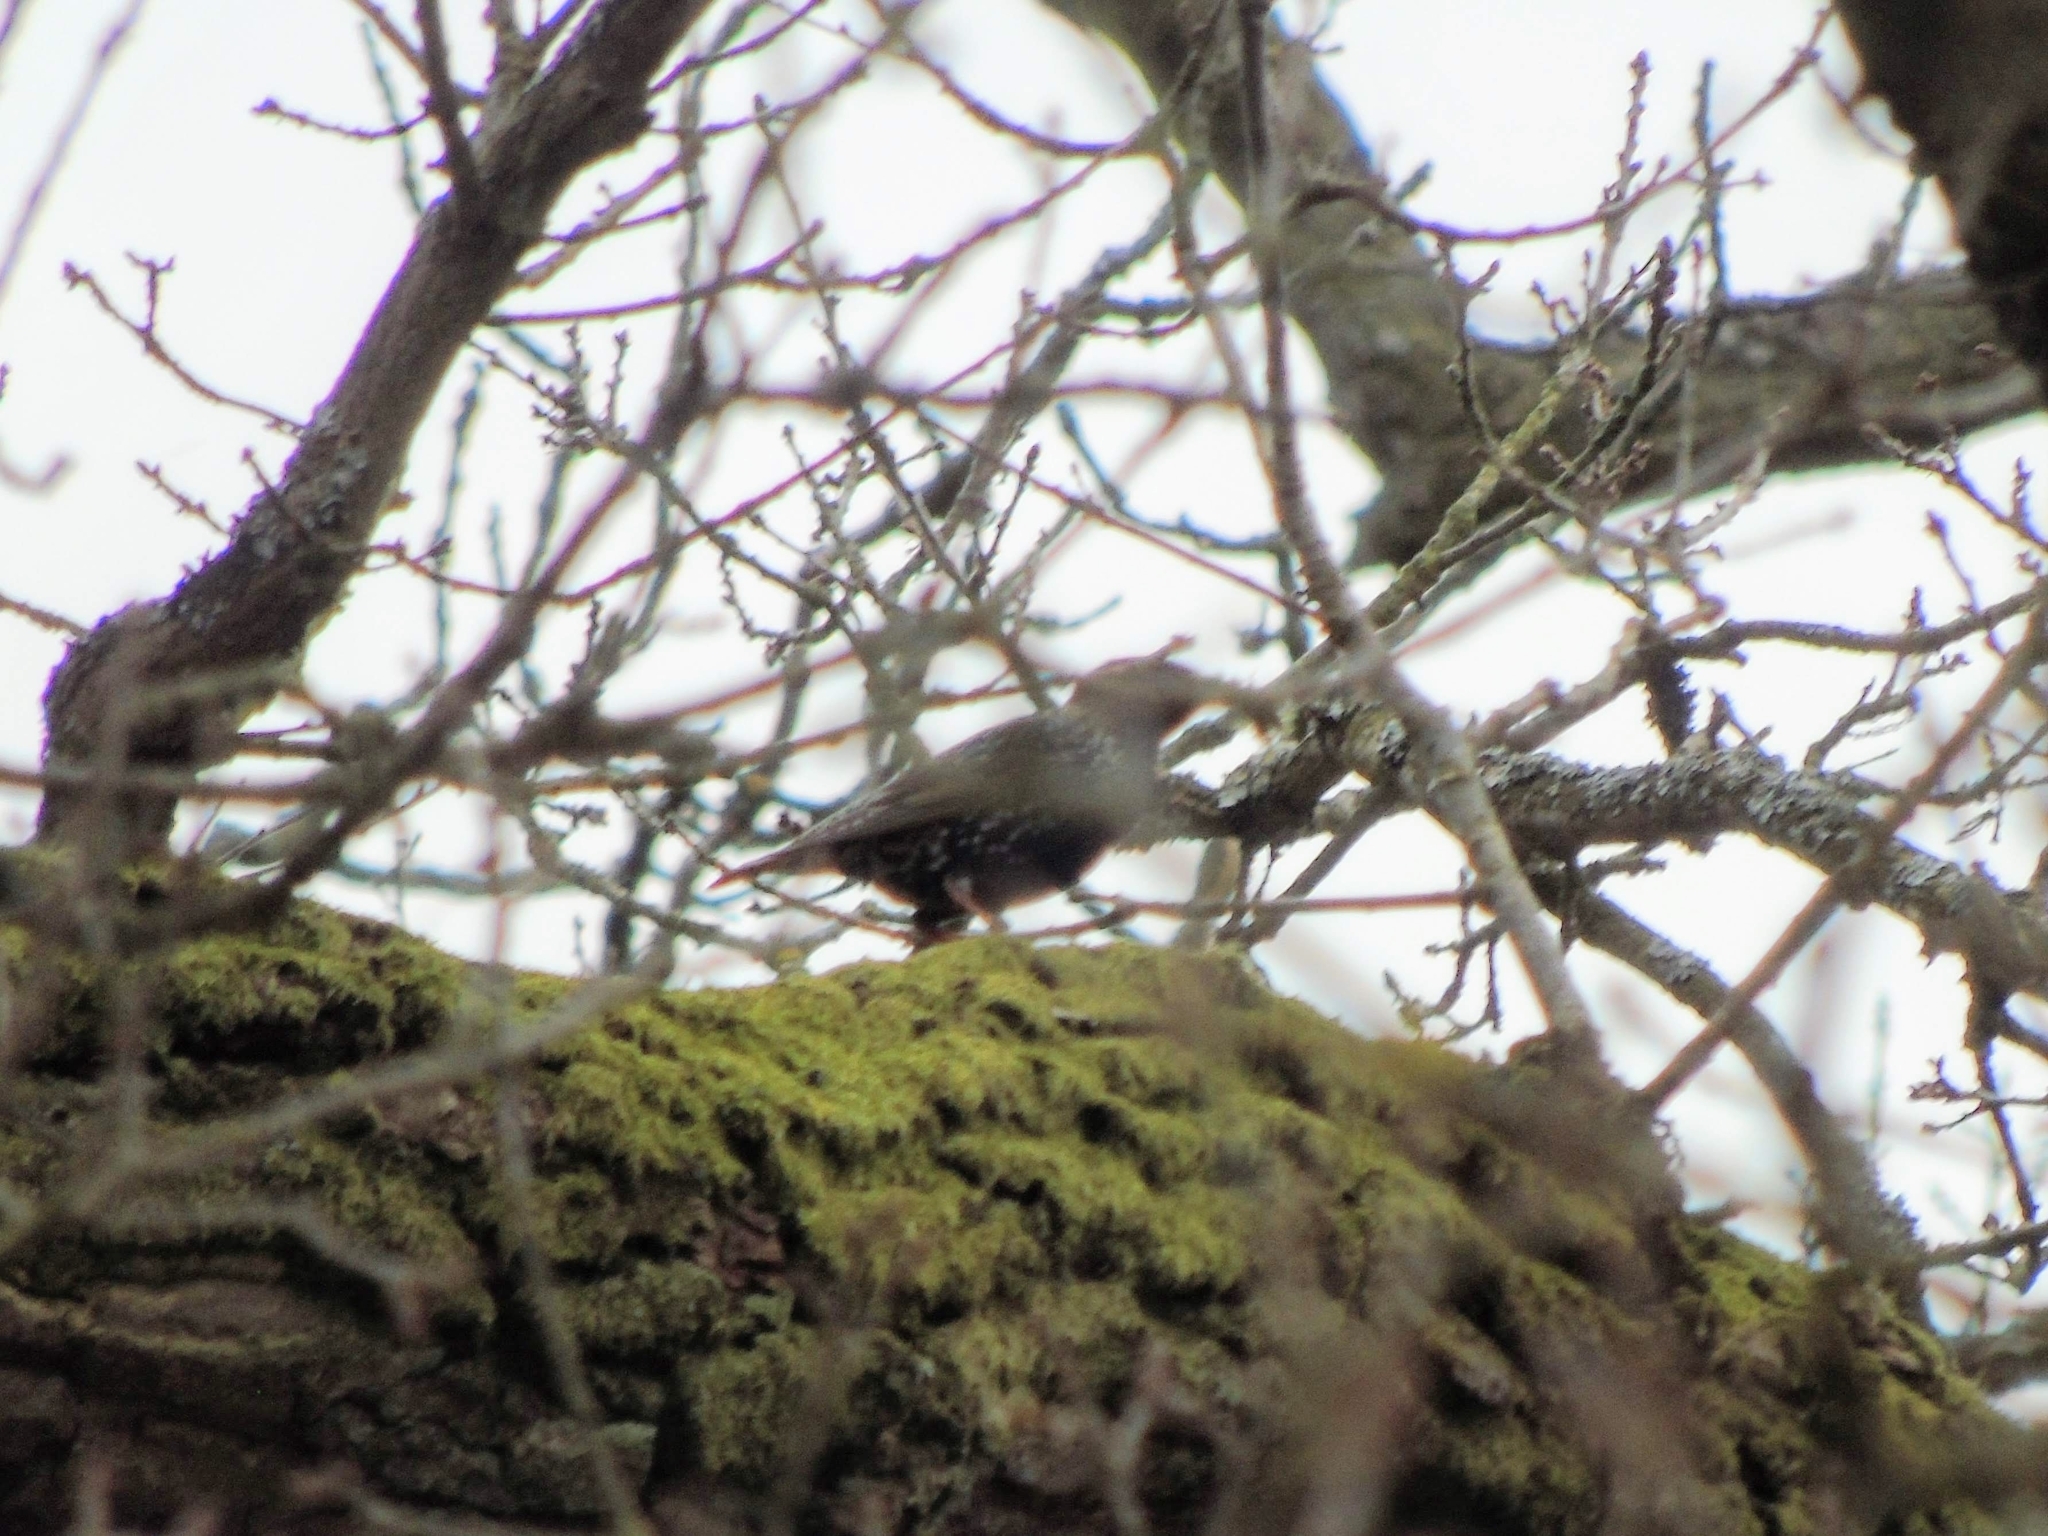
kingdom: Animalia
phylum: Chordata
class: Aves
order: Passeriformes
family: Sturnidae
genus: Sturnus
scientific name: Sturnus vulgaris
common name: Common starling
